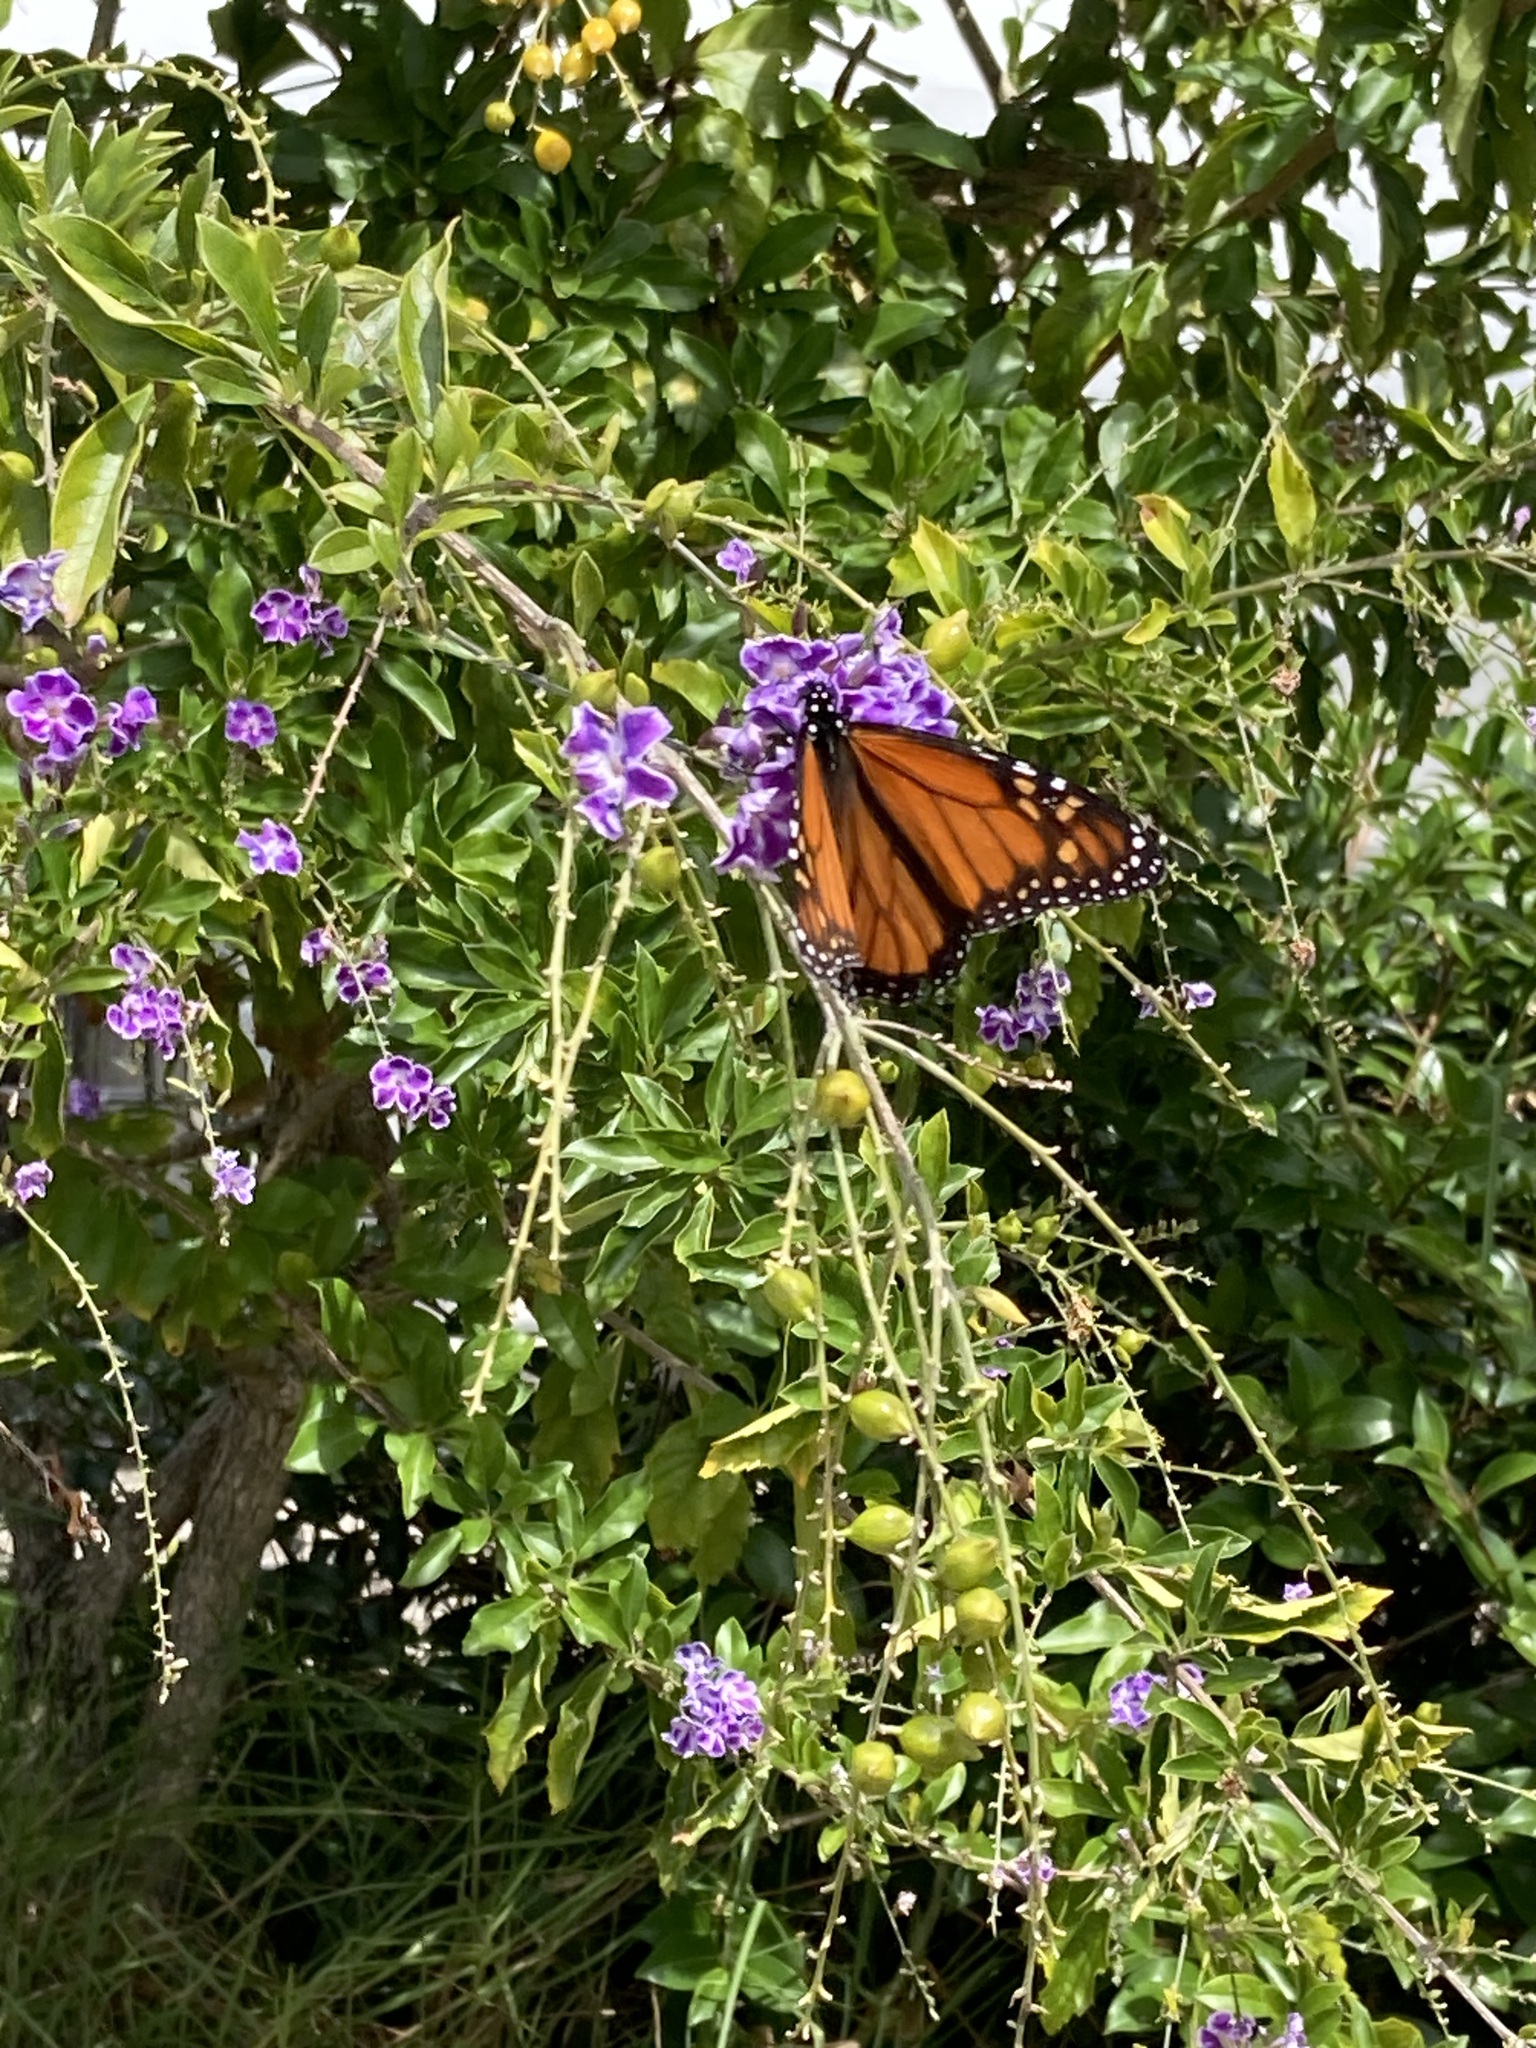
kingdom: Animalia
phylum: Arthropoda
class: Insecta
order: Lepidoptera
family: Nymphalidae
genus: Danaus
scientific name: Danaus plexippus
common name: Monarch
